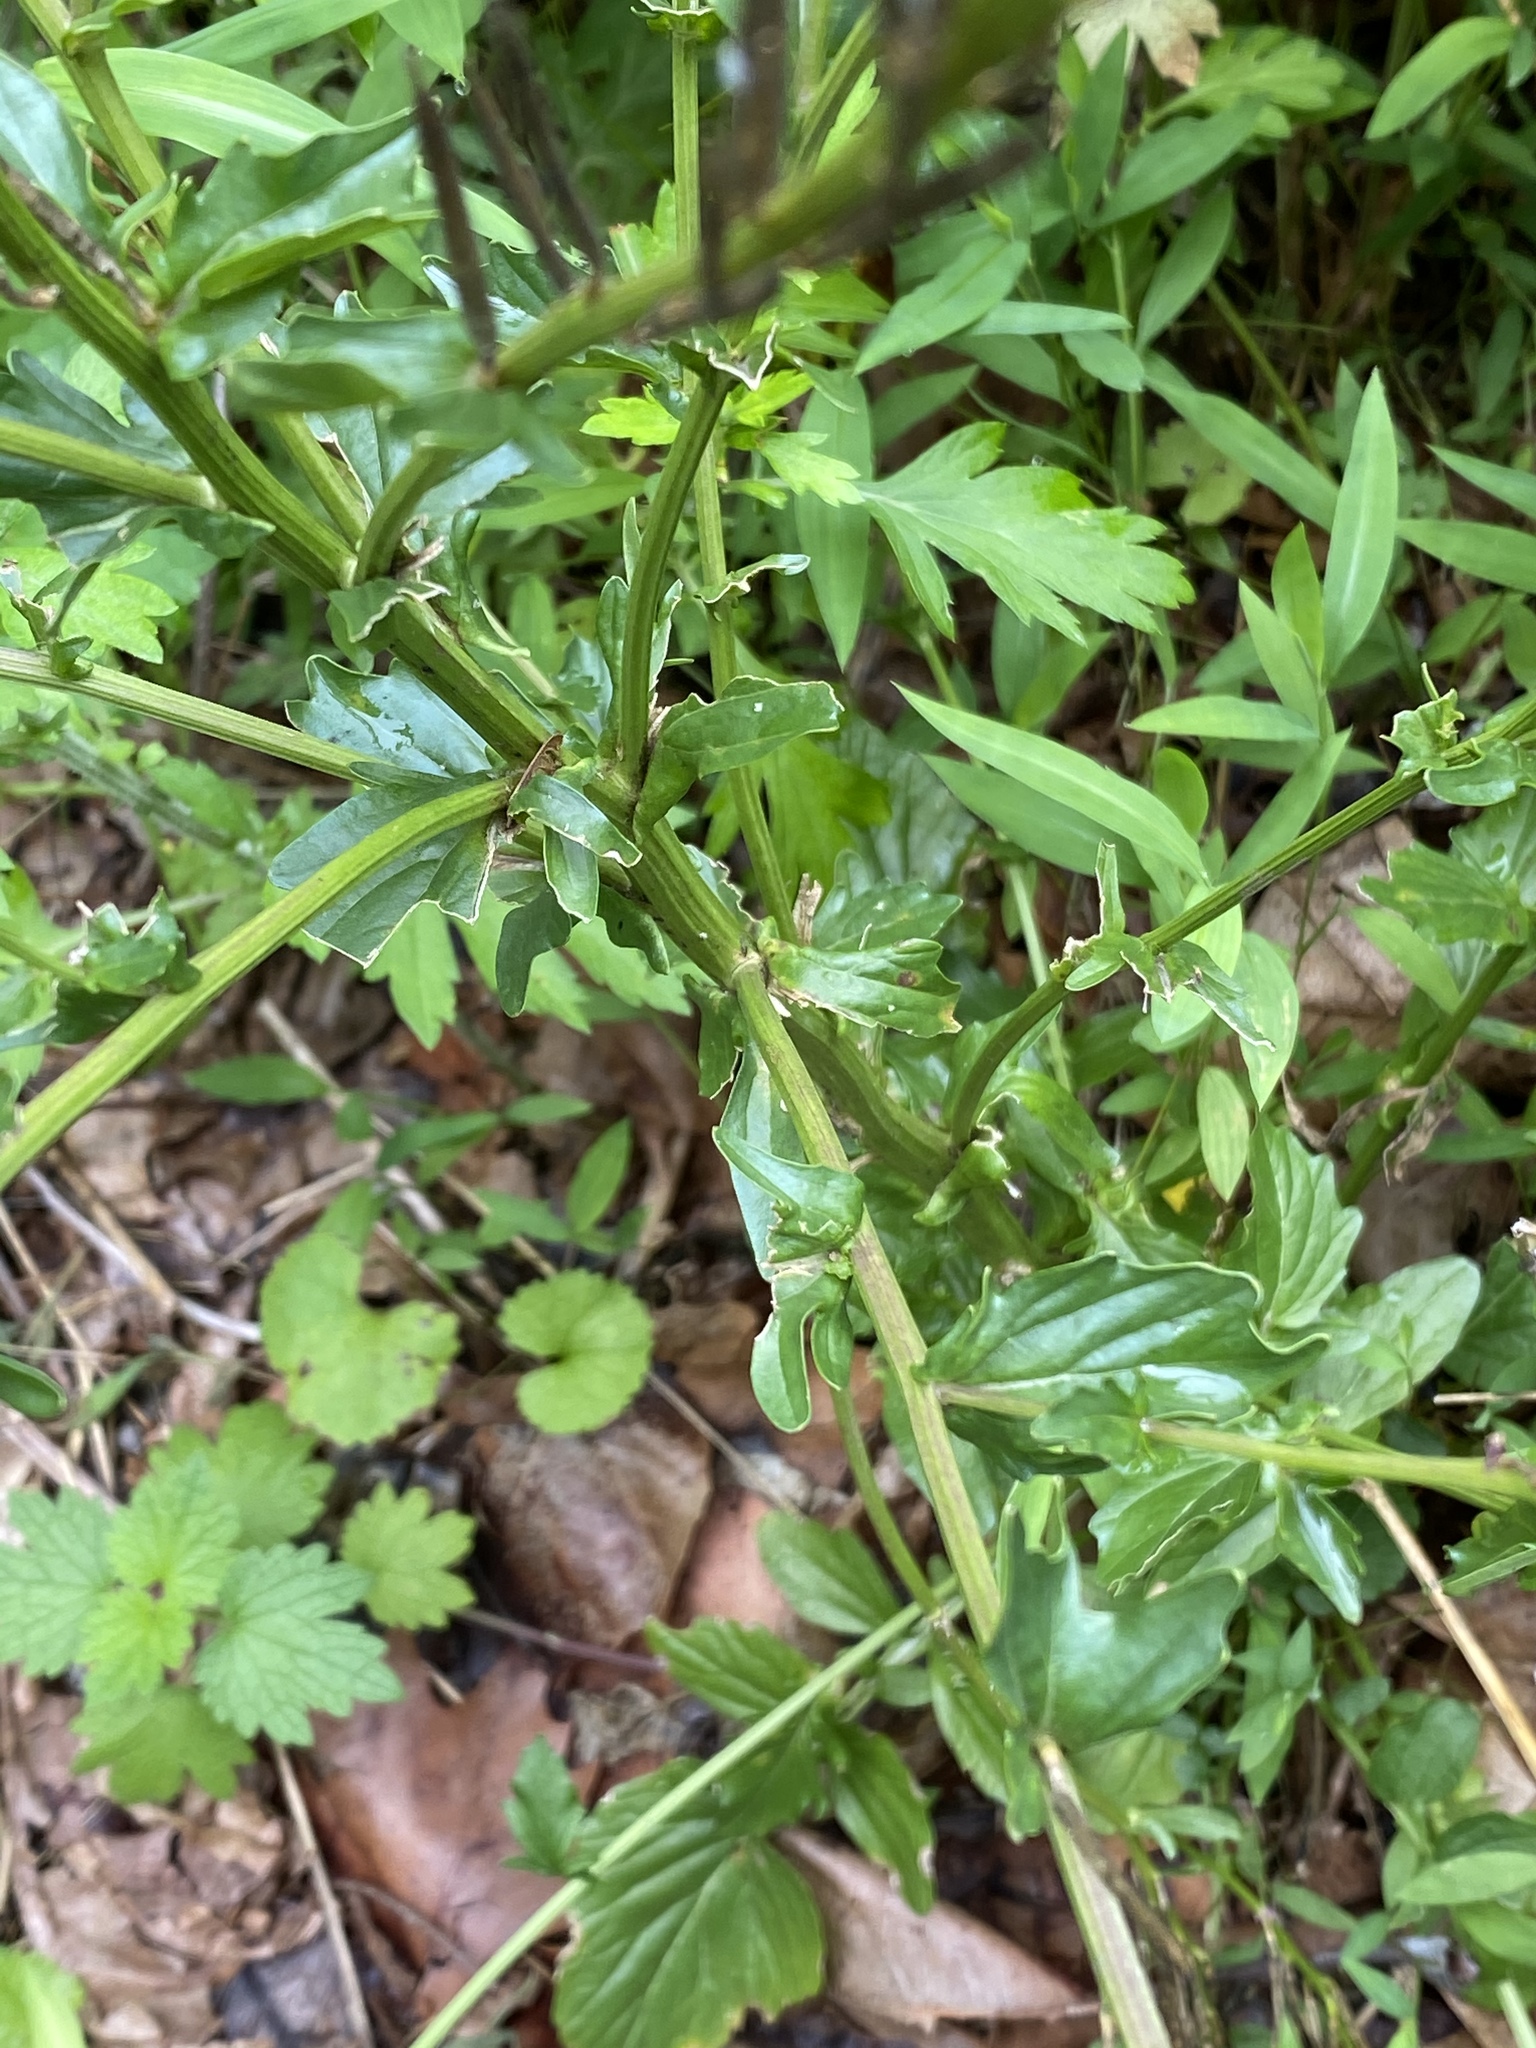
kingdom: Plantae
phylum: Tracheophyta
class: Magnoliopsida
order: Brassicales
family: Brassicaceae
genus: Barbarea
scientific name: Barbarea vulgaris
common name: Cressy-greens
